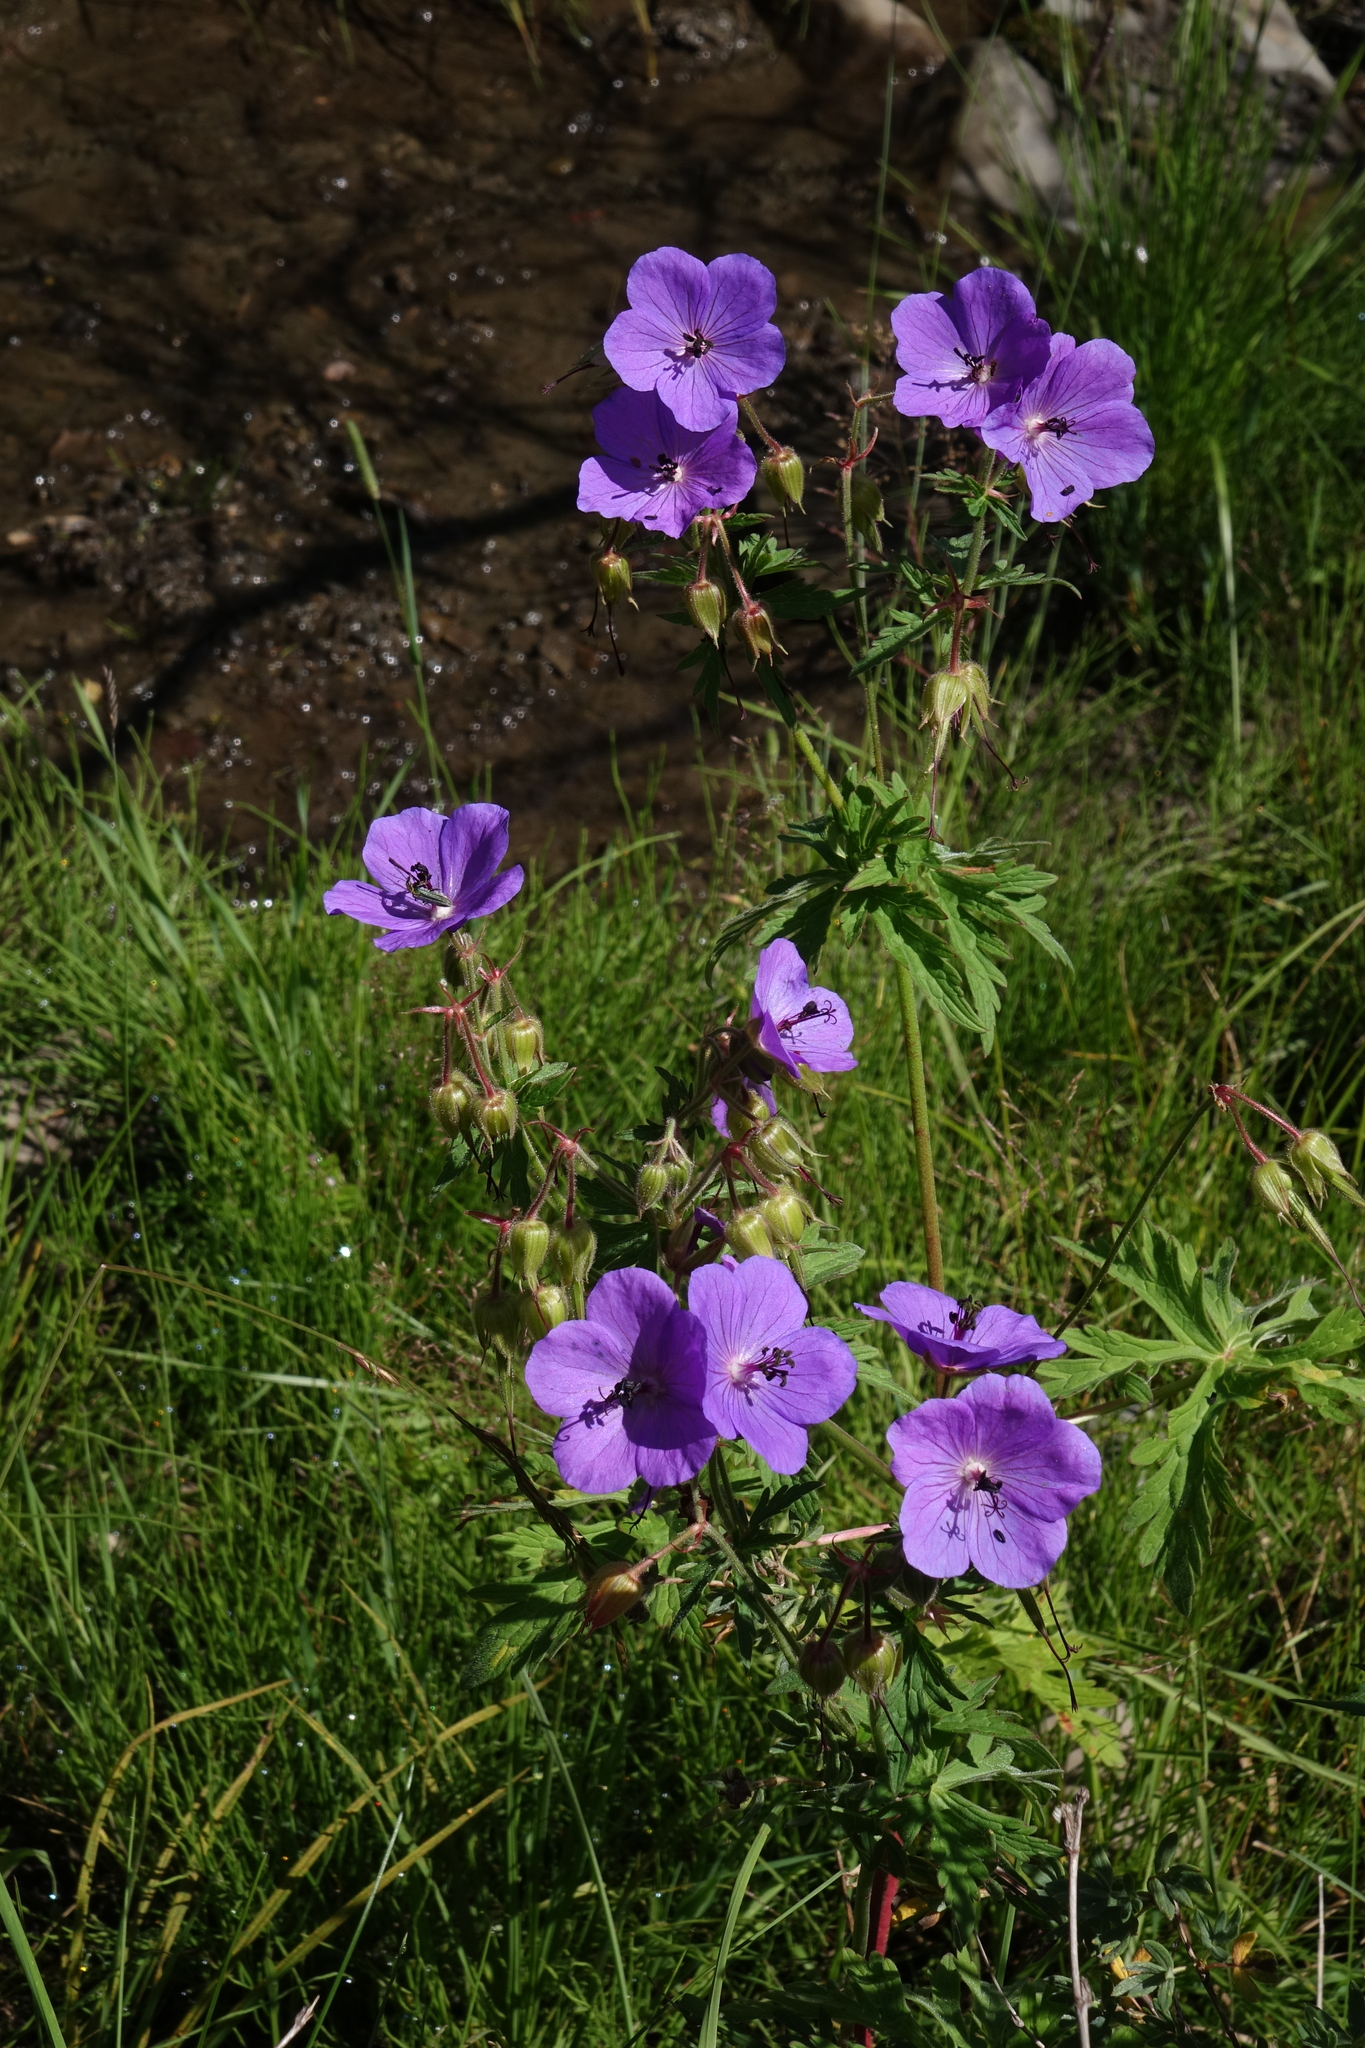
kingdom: Plantae
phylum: Tracheophyta
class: Magnoliopsida
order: Geraniales
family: Geraniaceae
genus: Geranium
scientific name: Geranium ruprechtii
